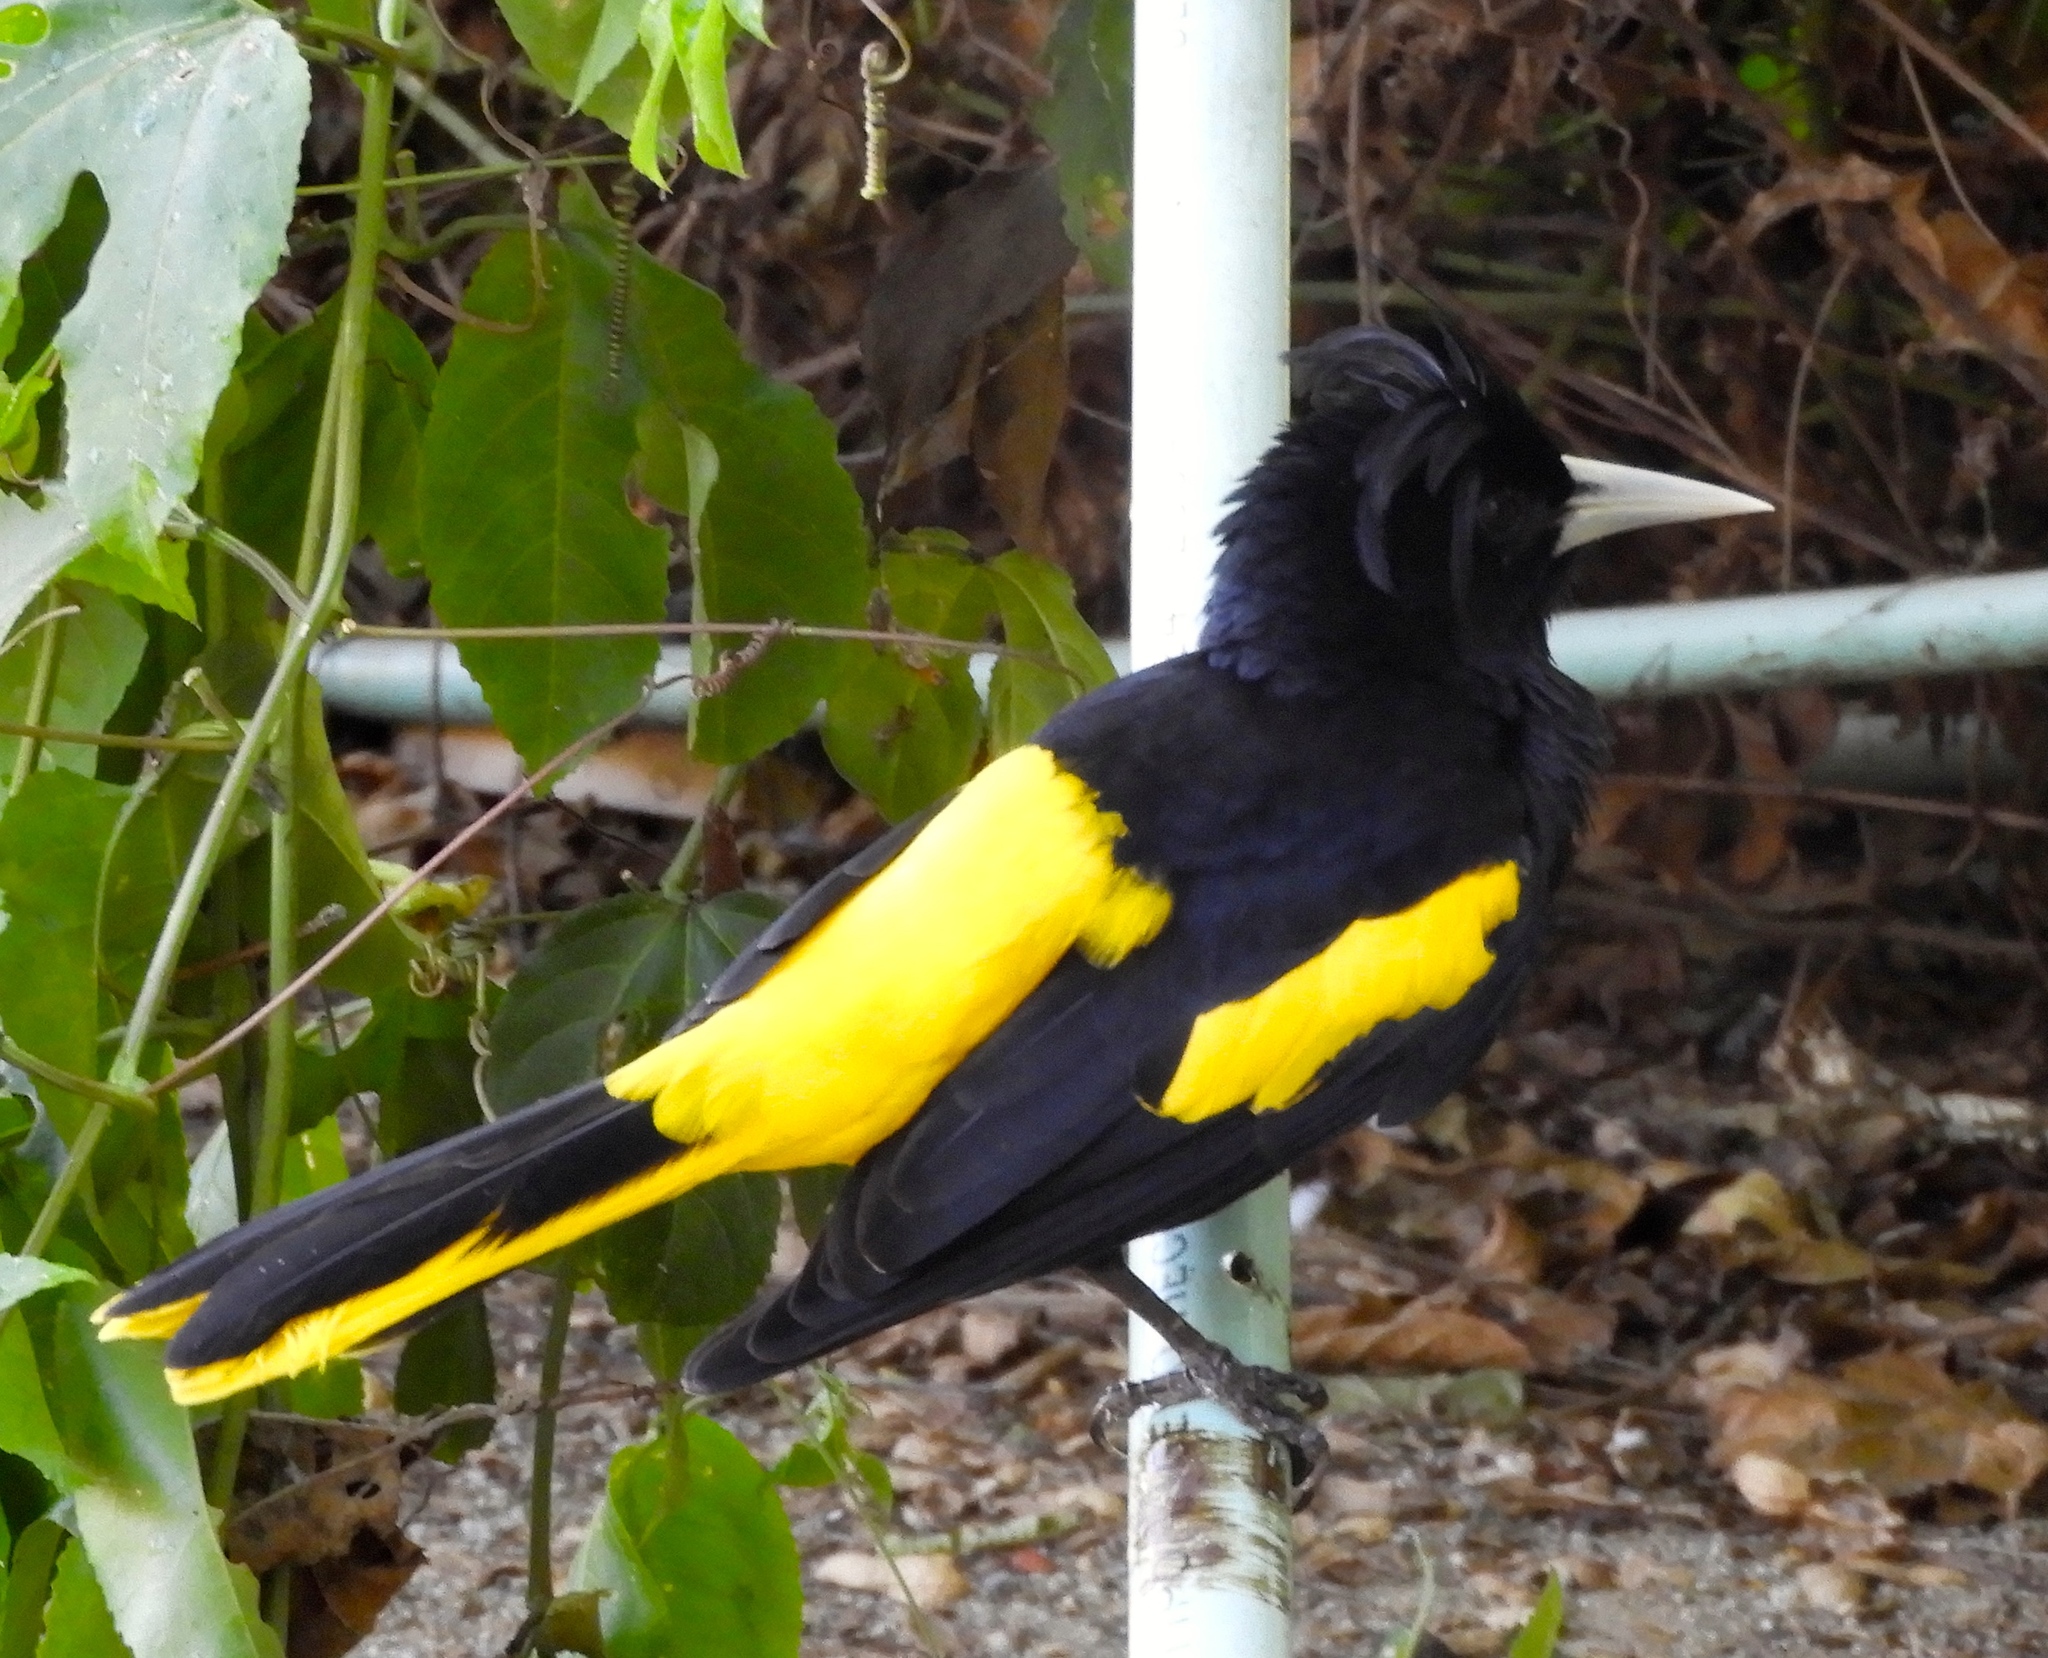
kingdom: Animalia
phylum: Chordata
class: Aves
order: Passeriformes
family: Icteridae
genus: Cacicus
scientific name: Cacicus melanicterus
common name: Yellow-winged cacique
